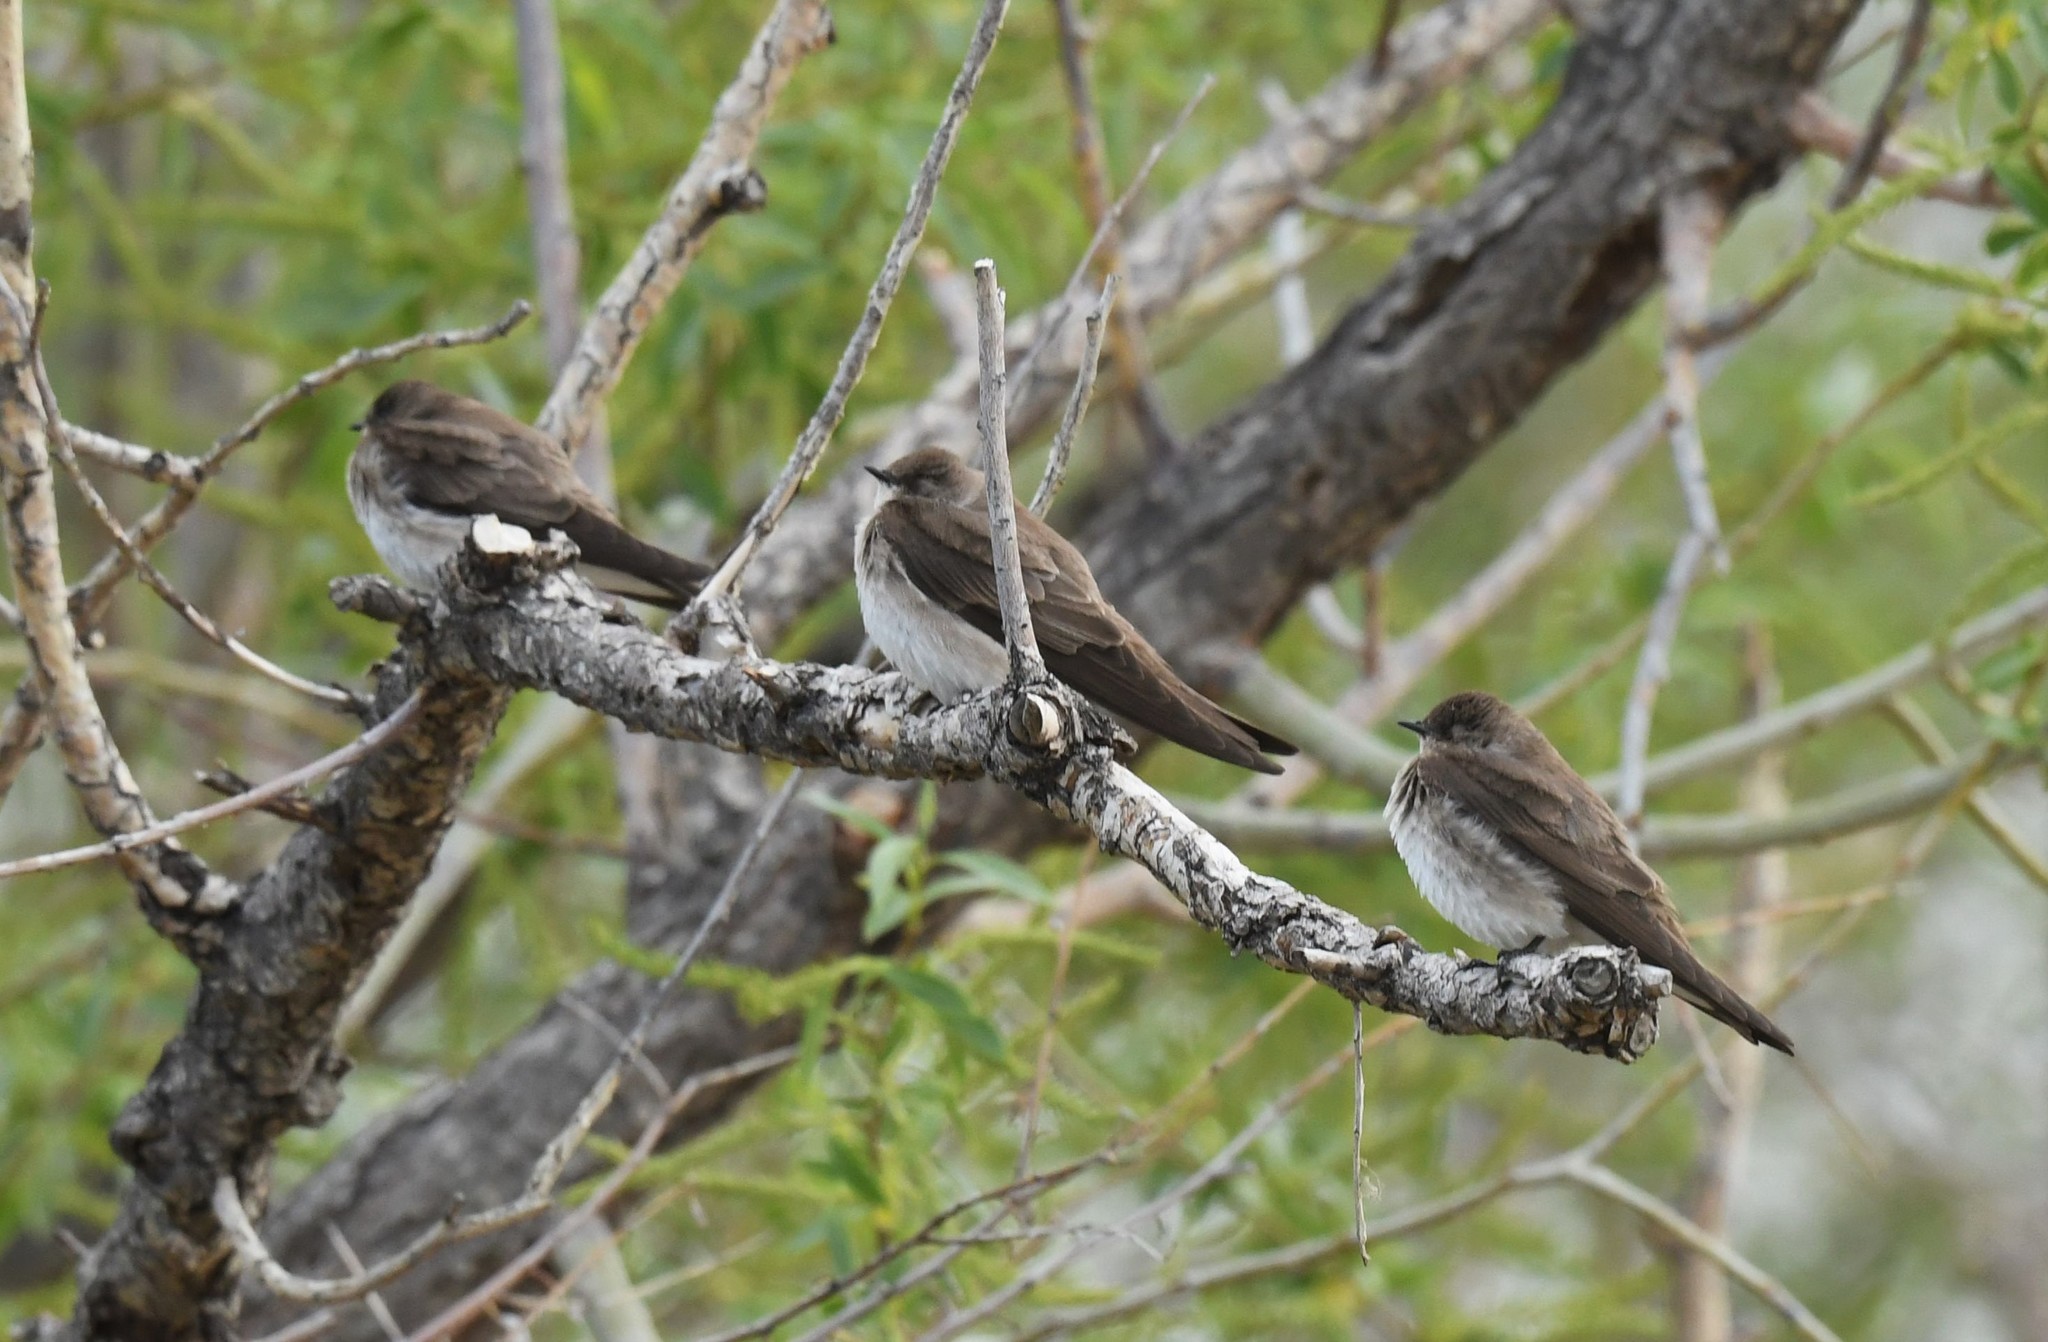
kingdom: Animalia
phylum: Chordata
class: Aves
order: Passeriformes
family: Hirundinidae
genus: Stelgidopteryx
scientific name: Stelgidopteryx serripennis
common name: Northern rough-winged swallow
